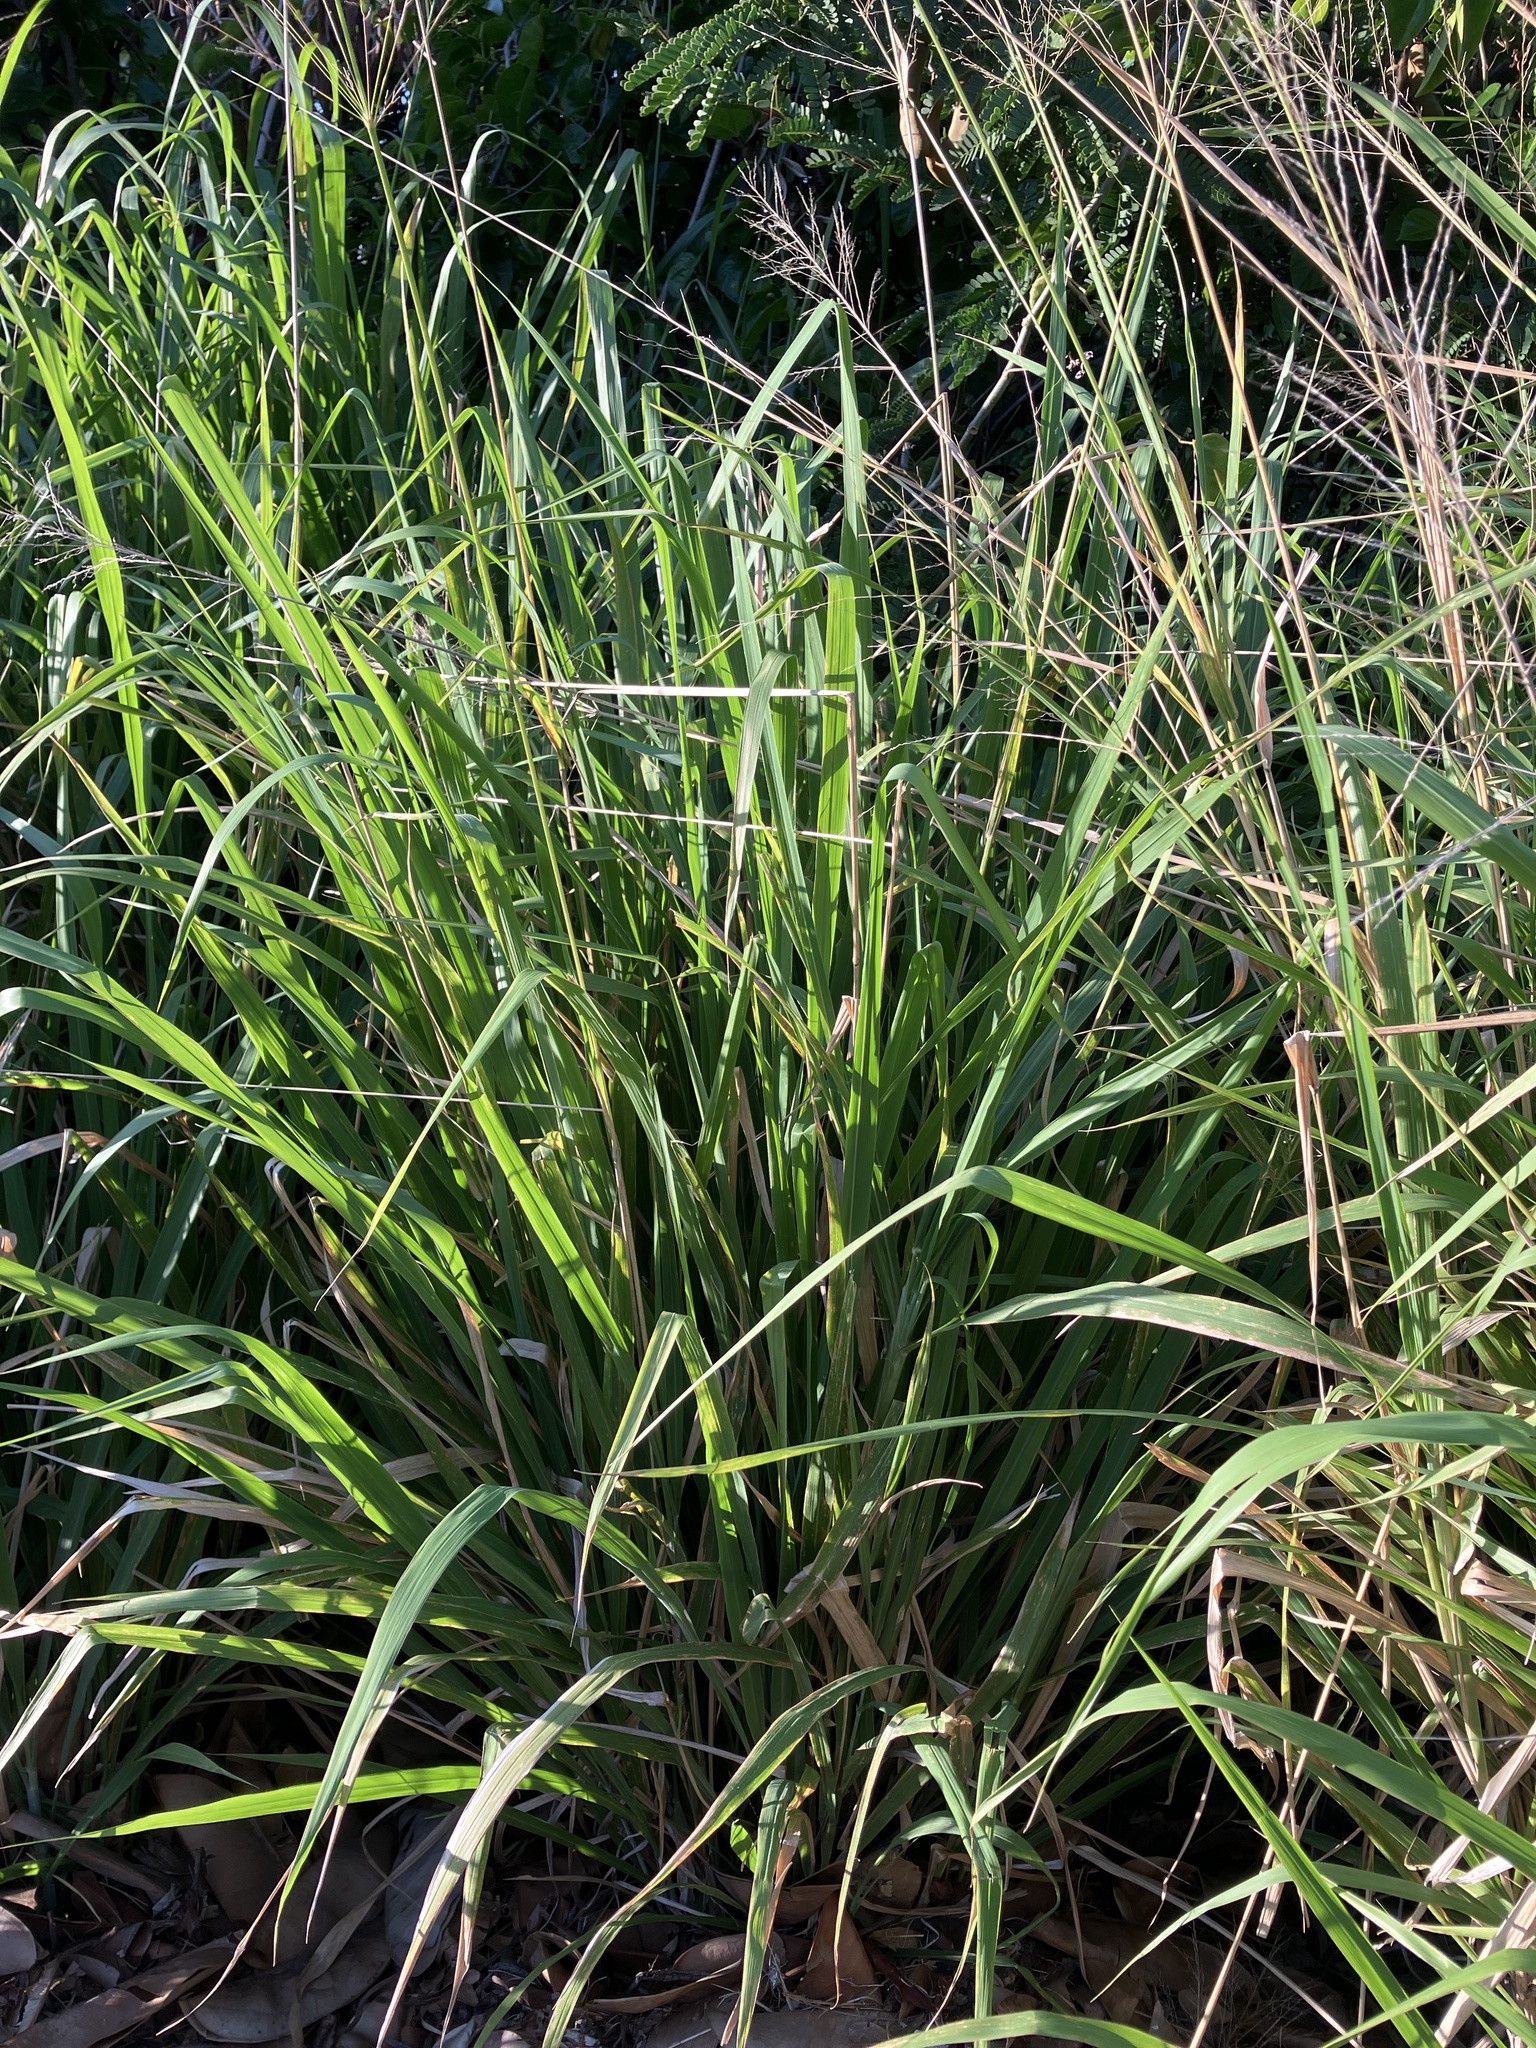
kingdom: Plantae
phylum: Tracheophyta
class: Liliopsida
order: Poales
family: Poaceae
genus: Megathyrsus
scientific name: Megathyrsus maximus
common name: Guineagrass
